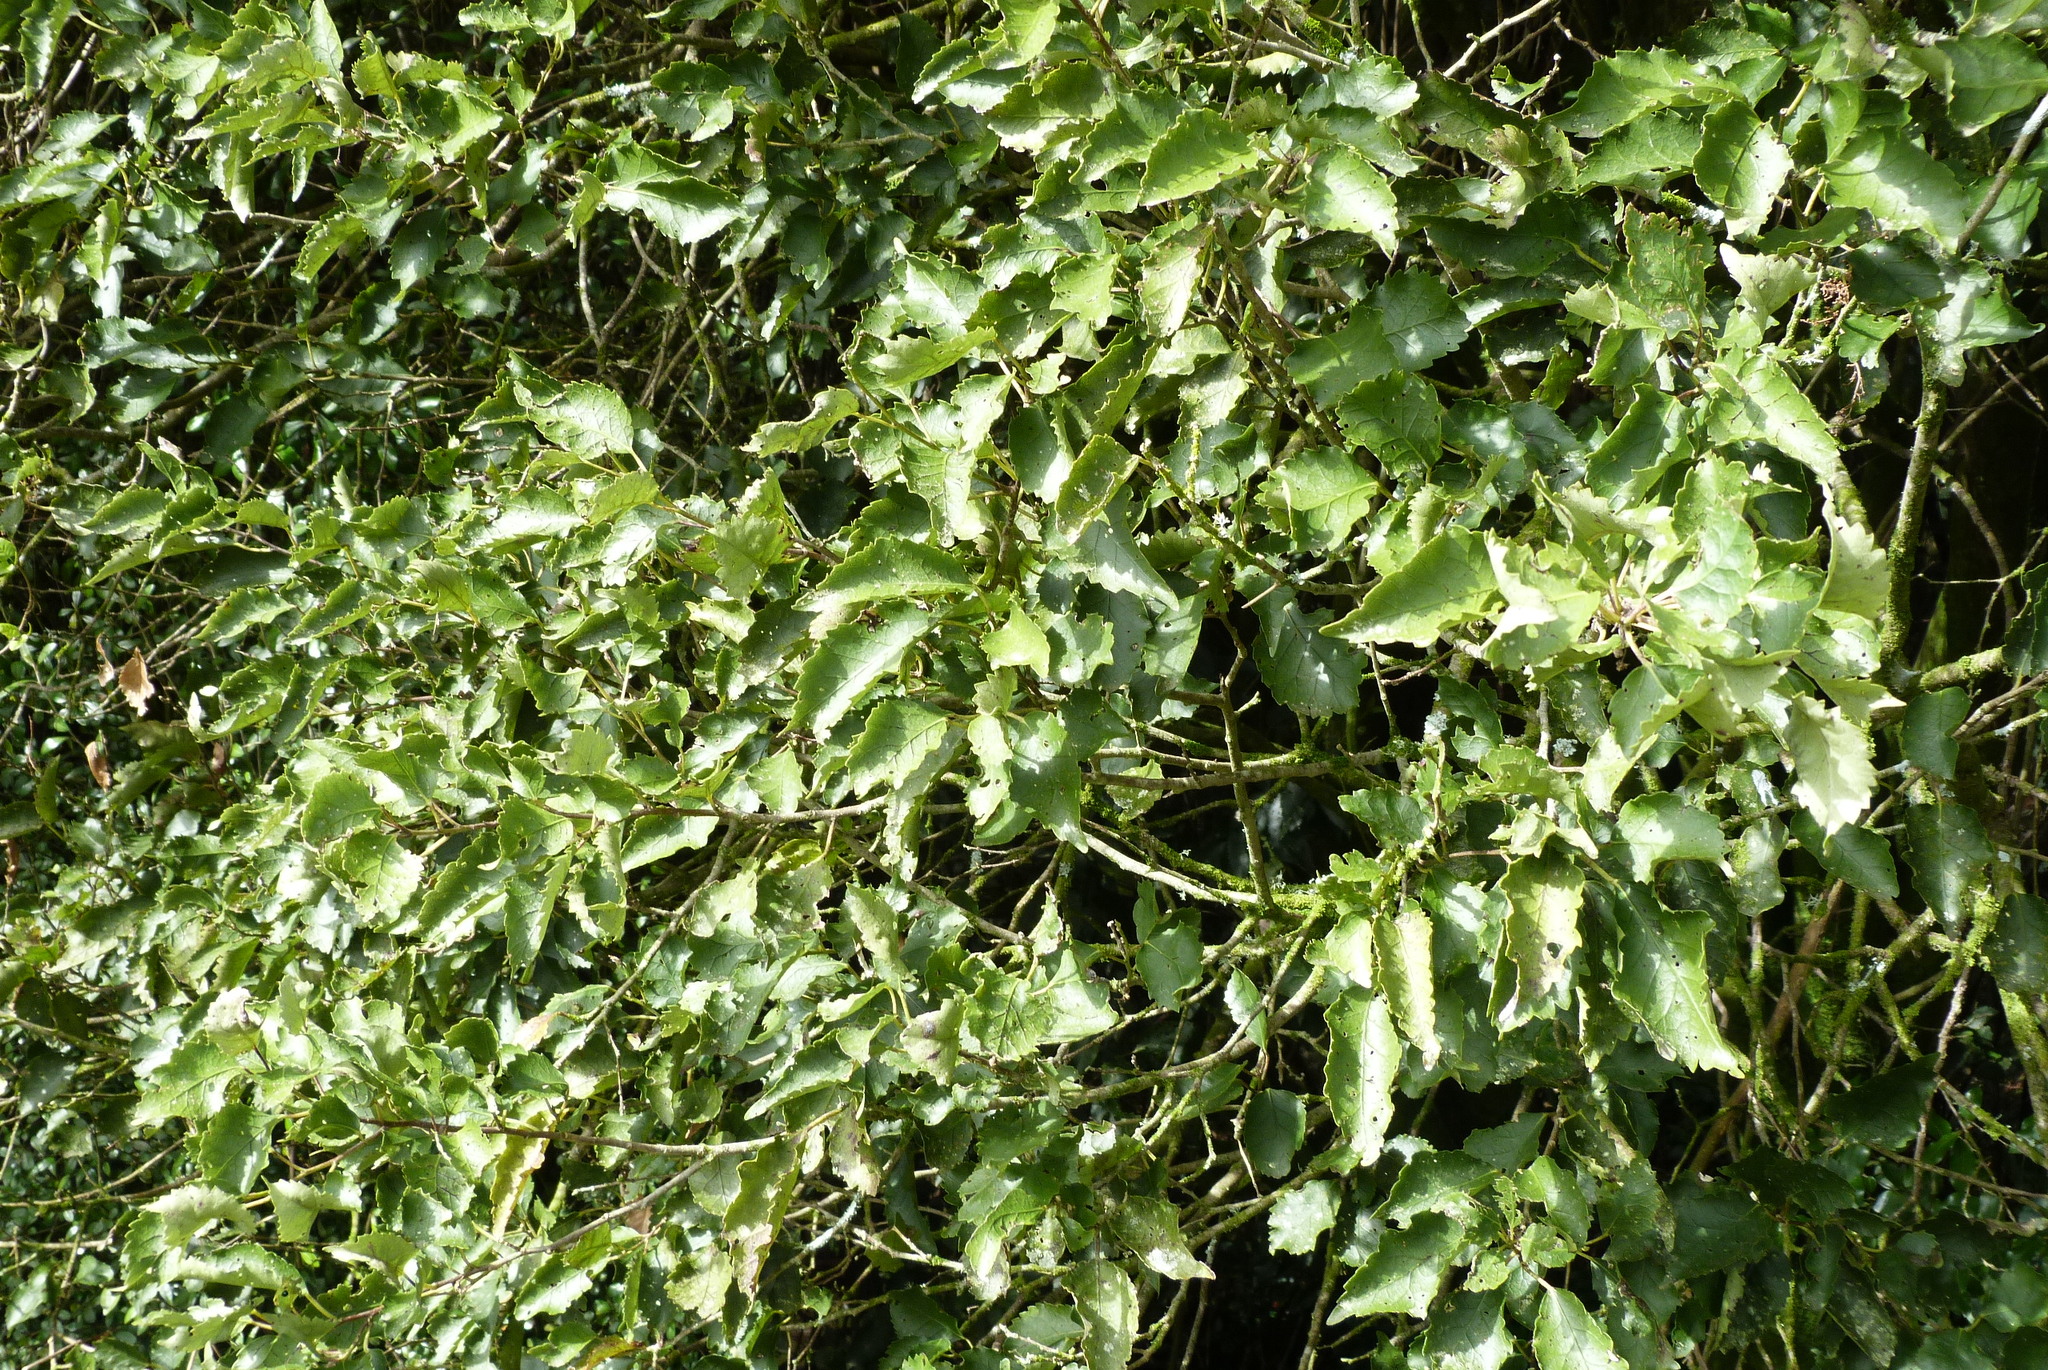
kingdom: Plantae
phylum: Tracheophyta
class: Magnoliopsida
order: Malvales
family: Malvaceae
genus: Hoheria
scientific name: Hoheria populnea
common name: Lacebark
